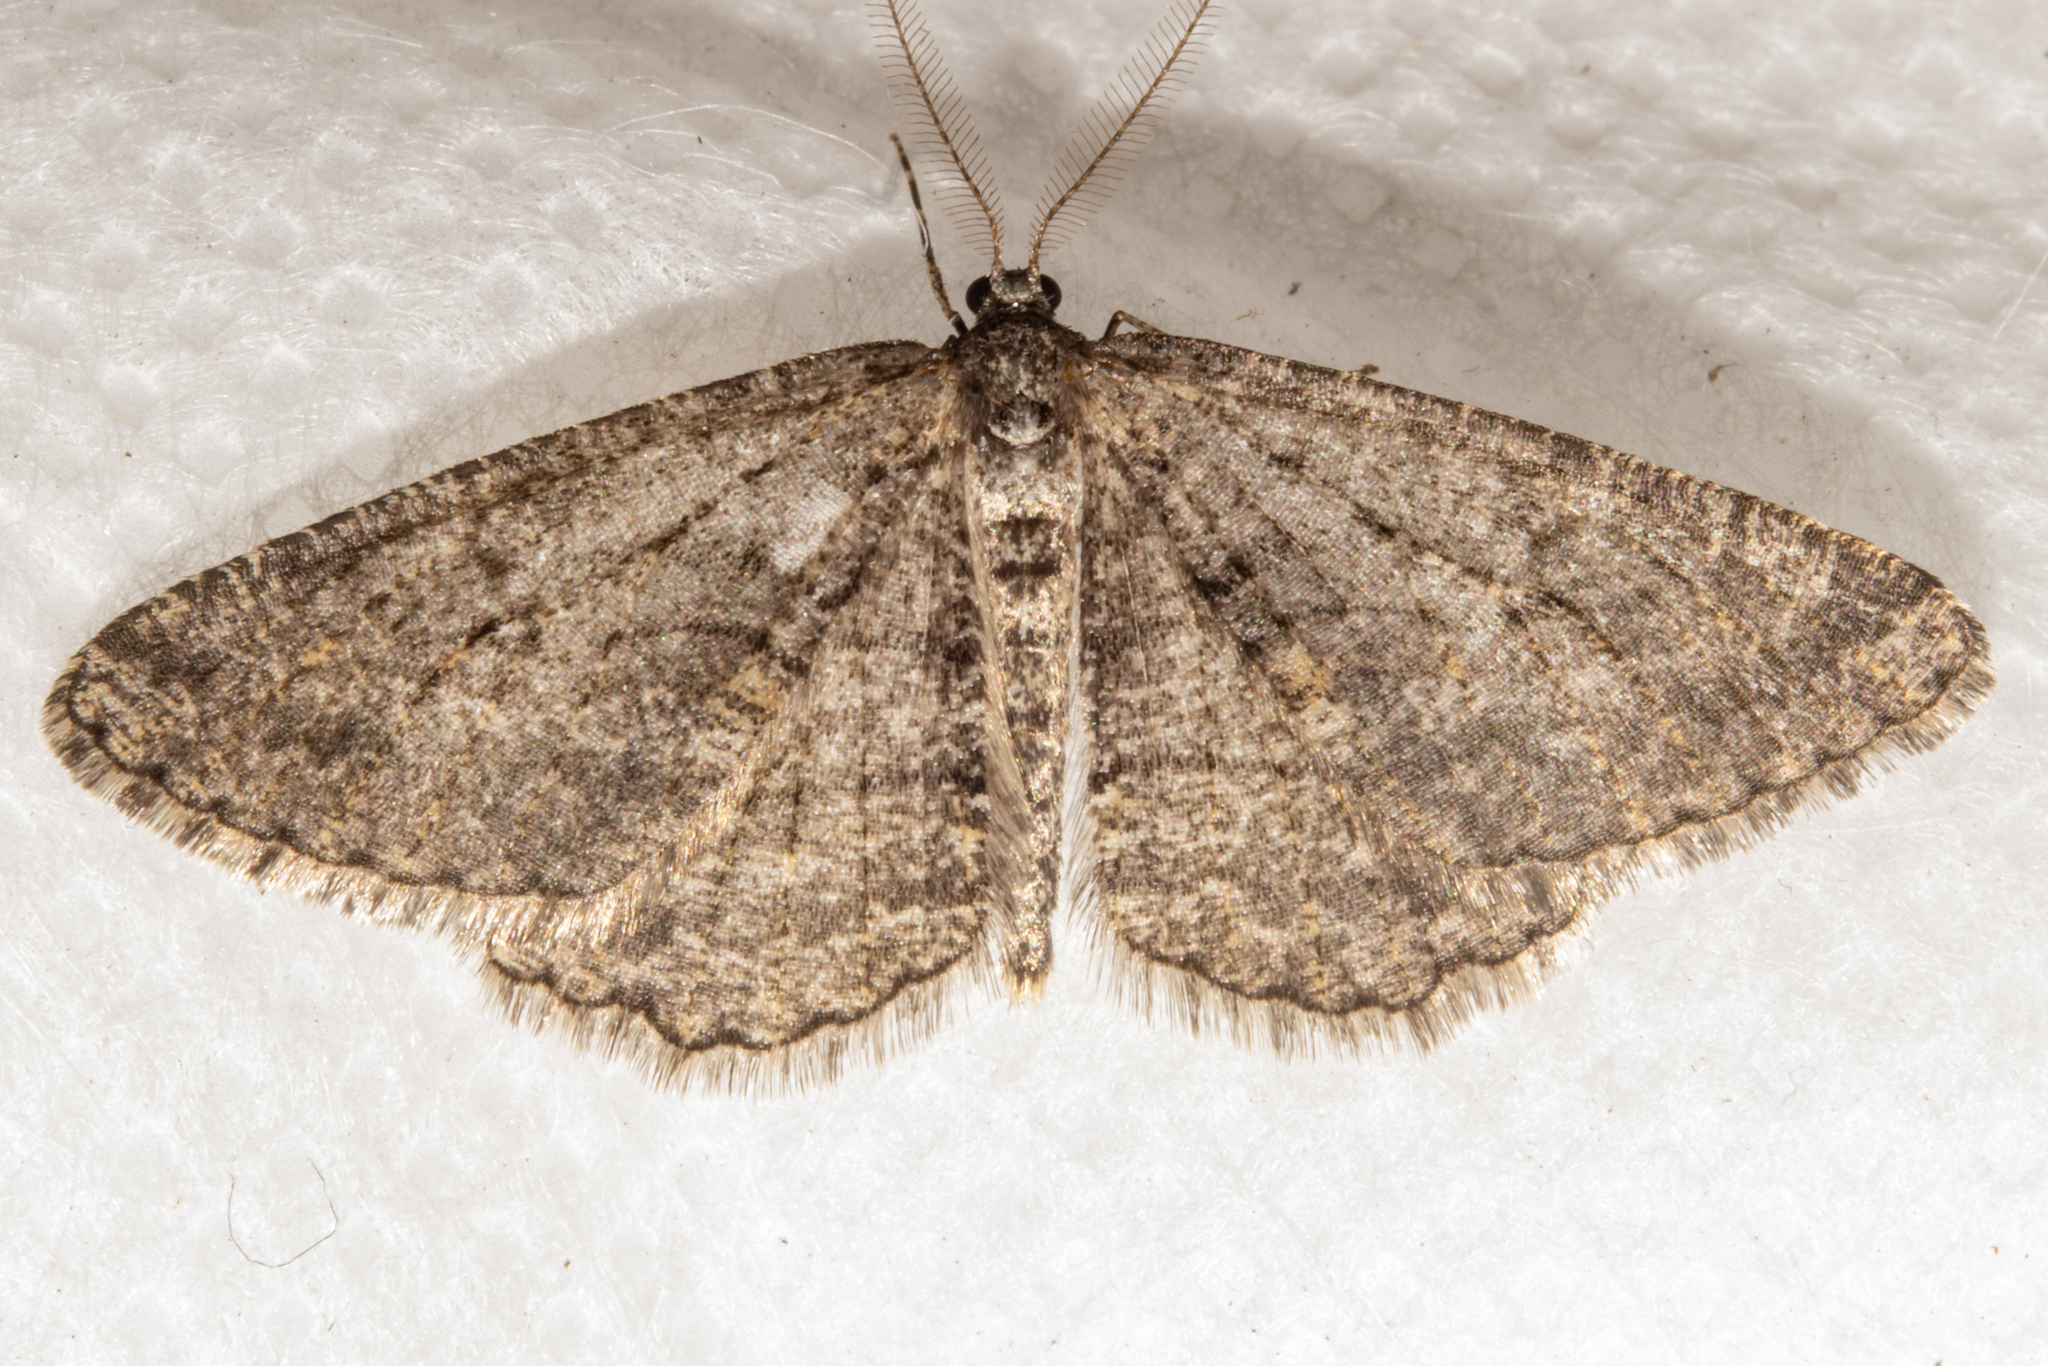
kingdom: Animalia
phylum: Arthropoda
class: Insecta
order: Lepidoptera
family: Geometridae
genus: Zermizinga
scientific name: Zermizinga indocilisaria
